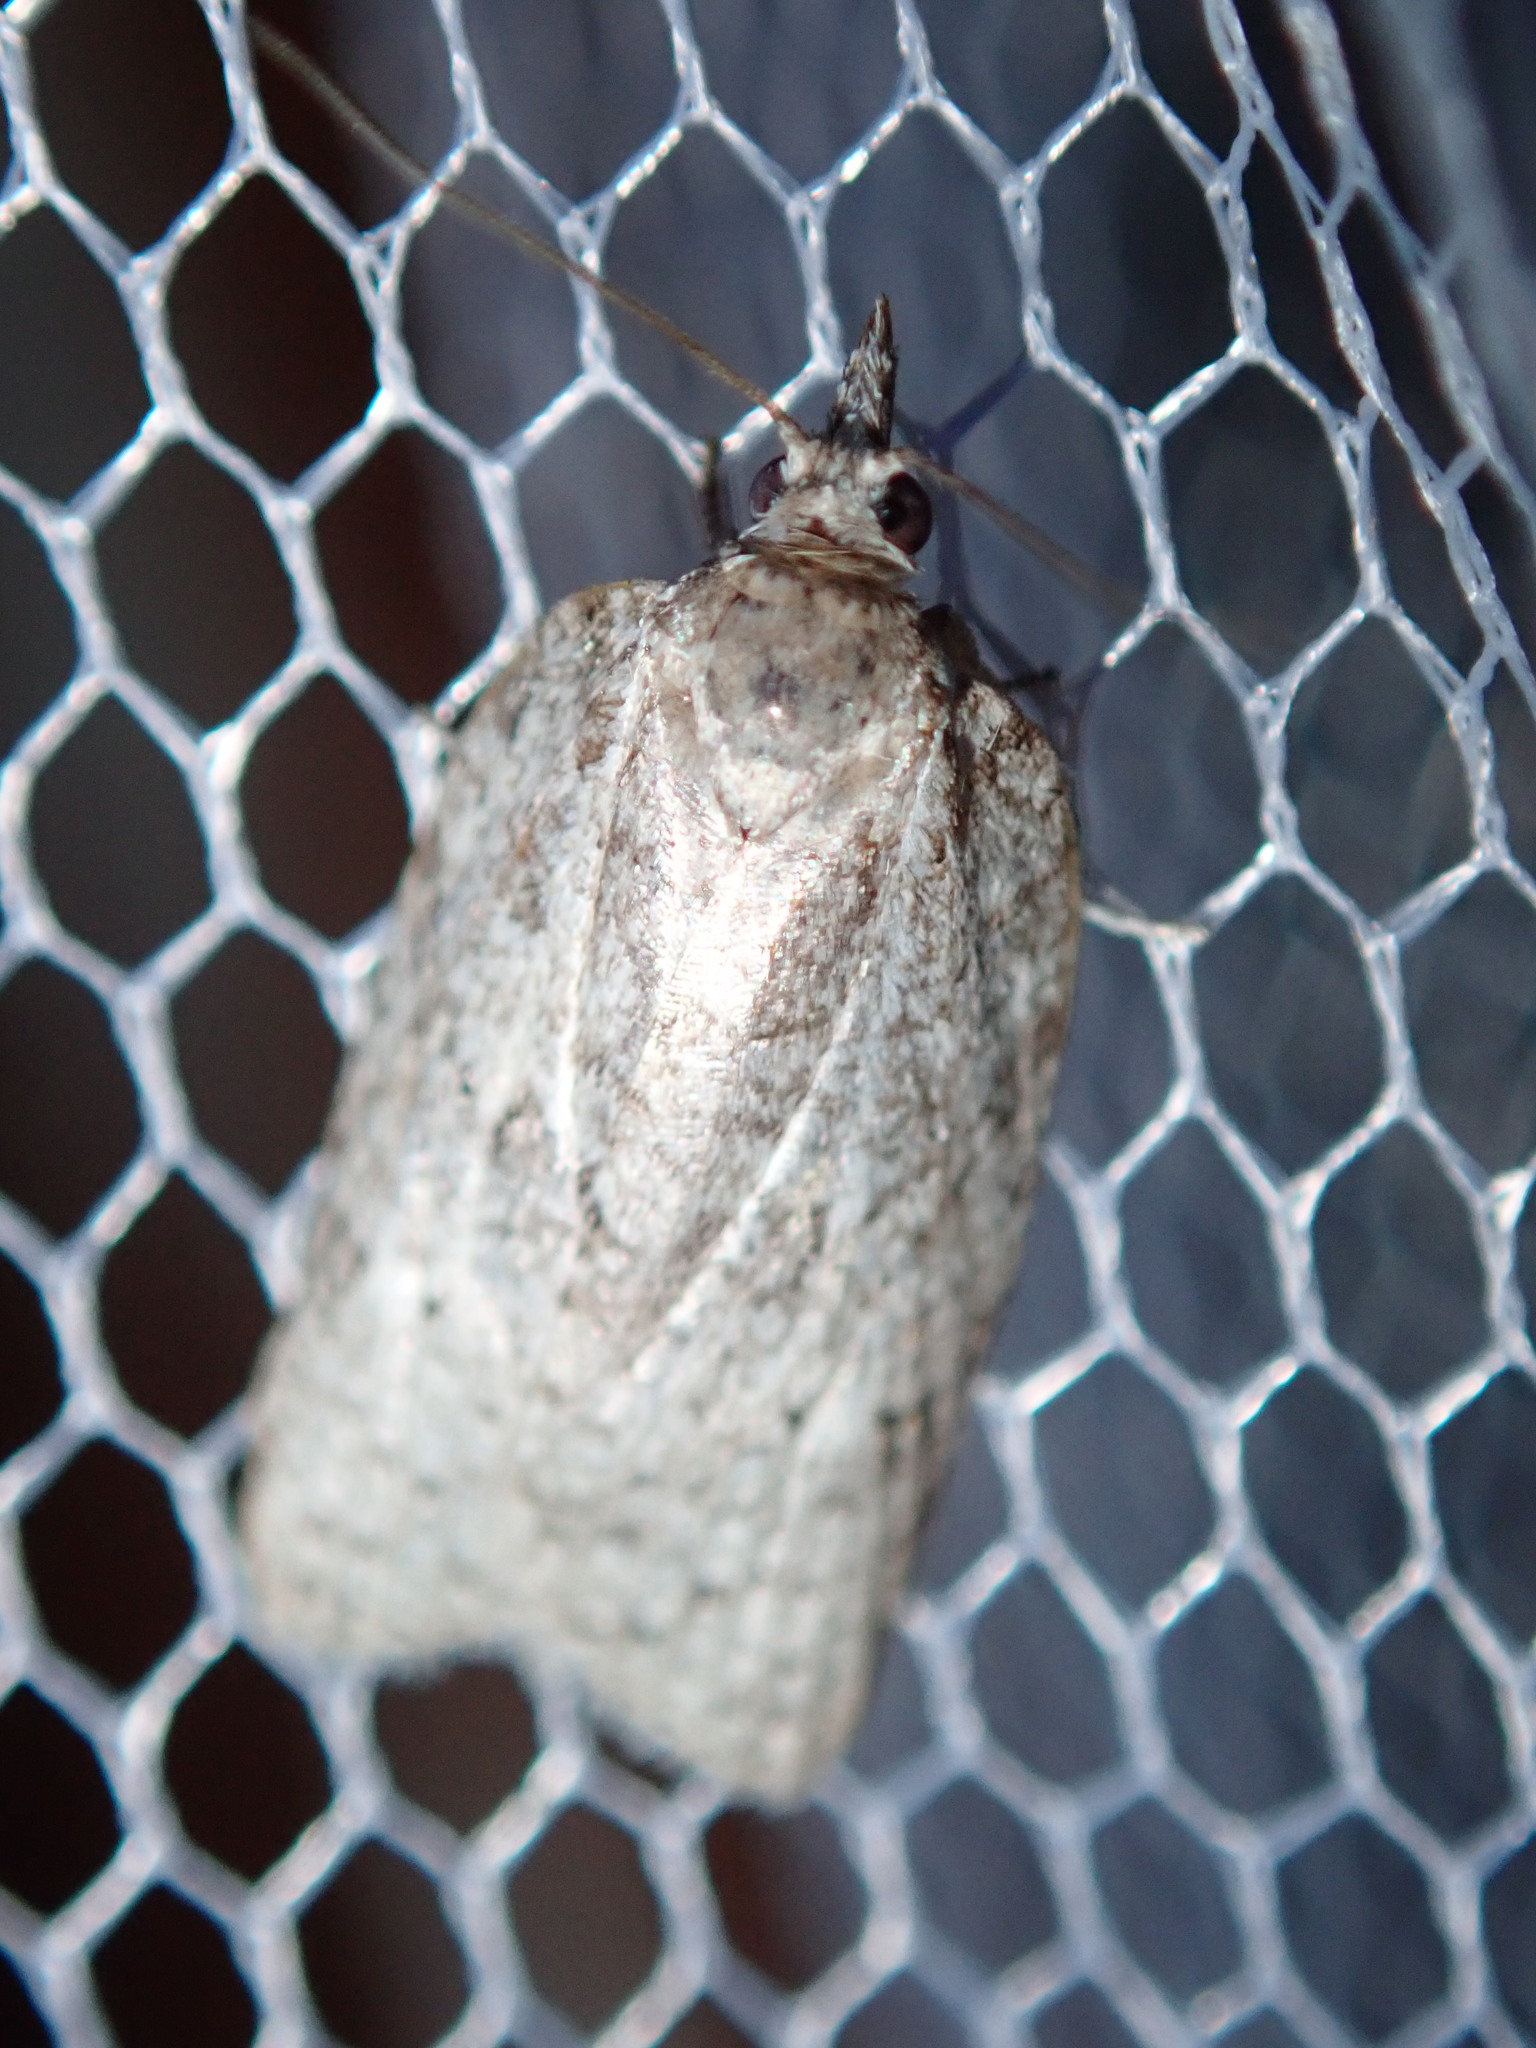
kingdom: Animalia
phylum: Arthropoda
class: Insecta
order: Lepidoptera
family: Tortricidae
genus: Isotenes
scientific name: Isotenes miserana
